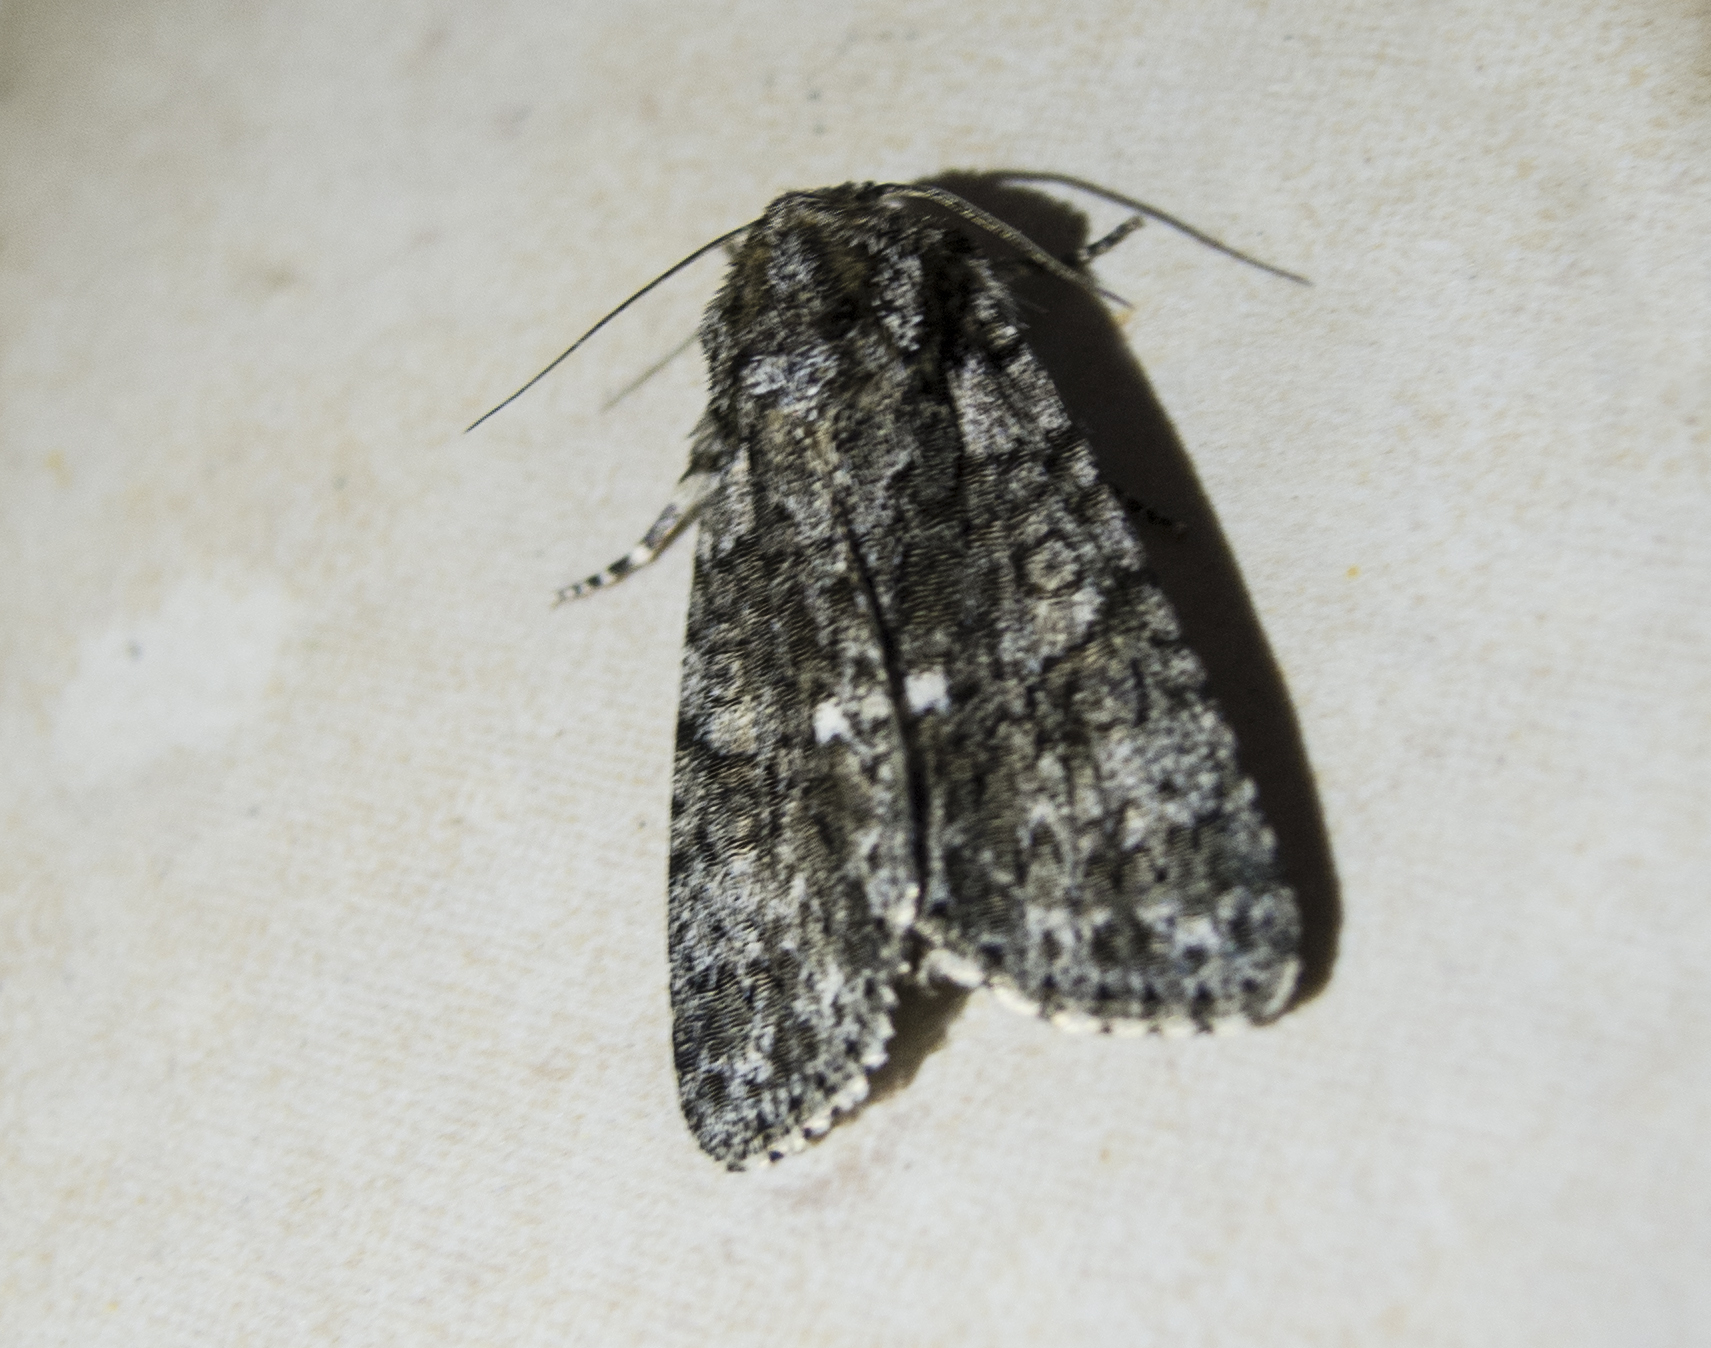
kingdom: Animalia
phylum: Arthropoda
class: Insecta
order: Lepidoptera
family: Noctuidae
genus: Acronicta
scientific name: Acronicta rumicis
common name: Knot grass
